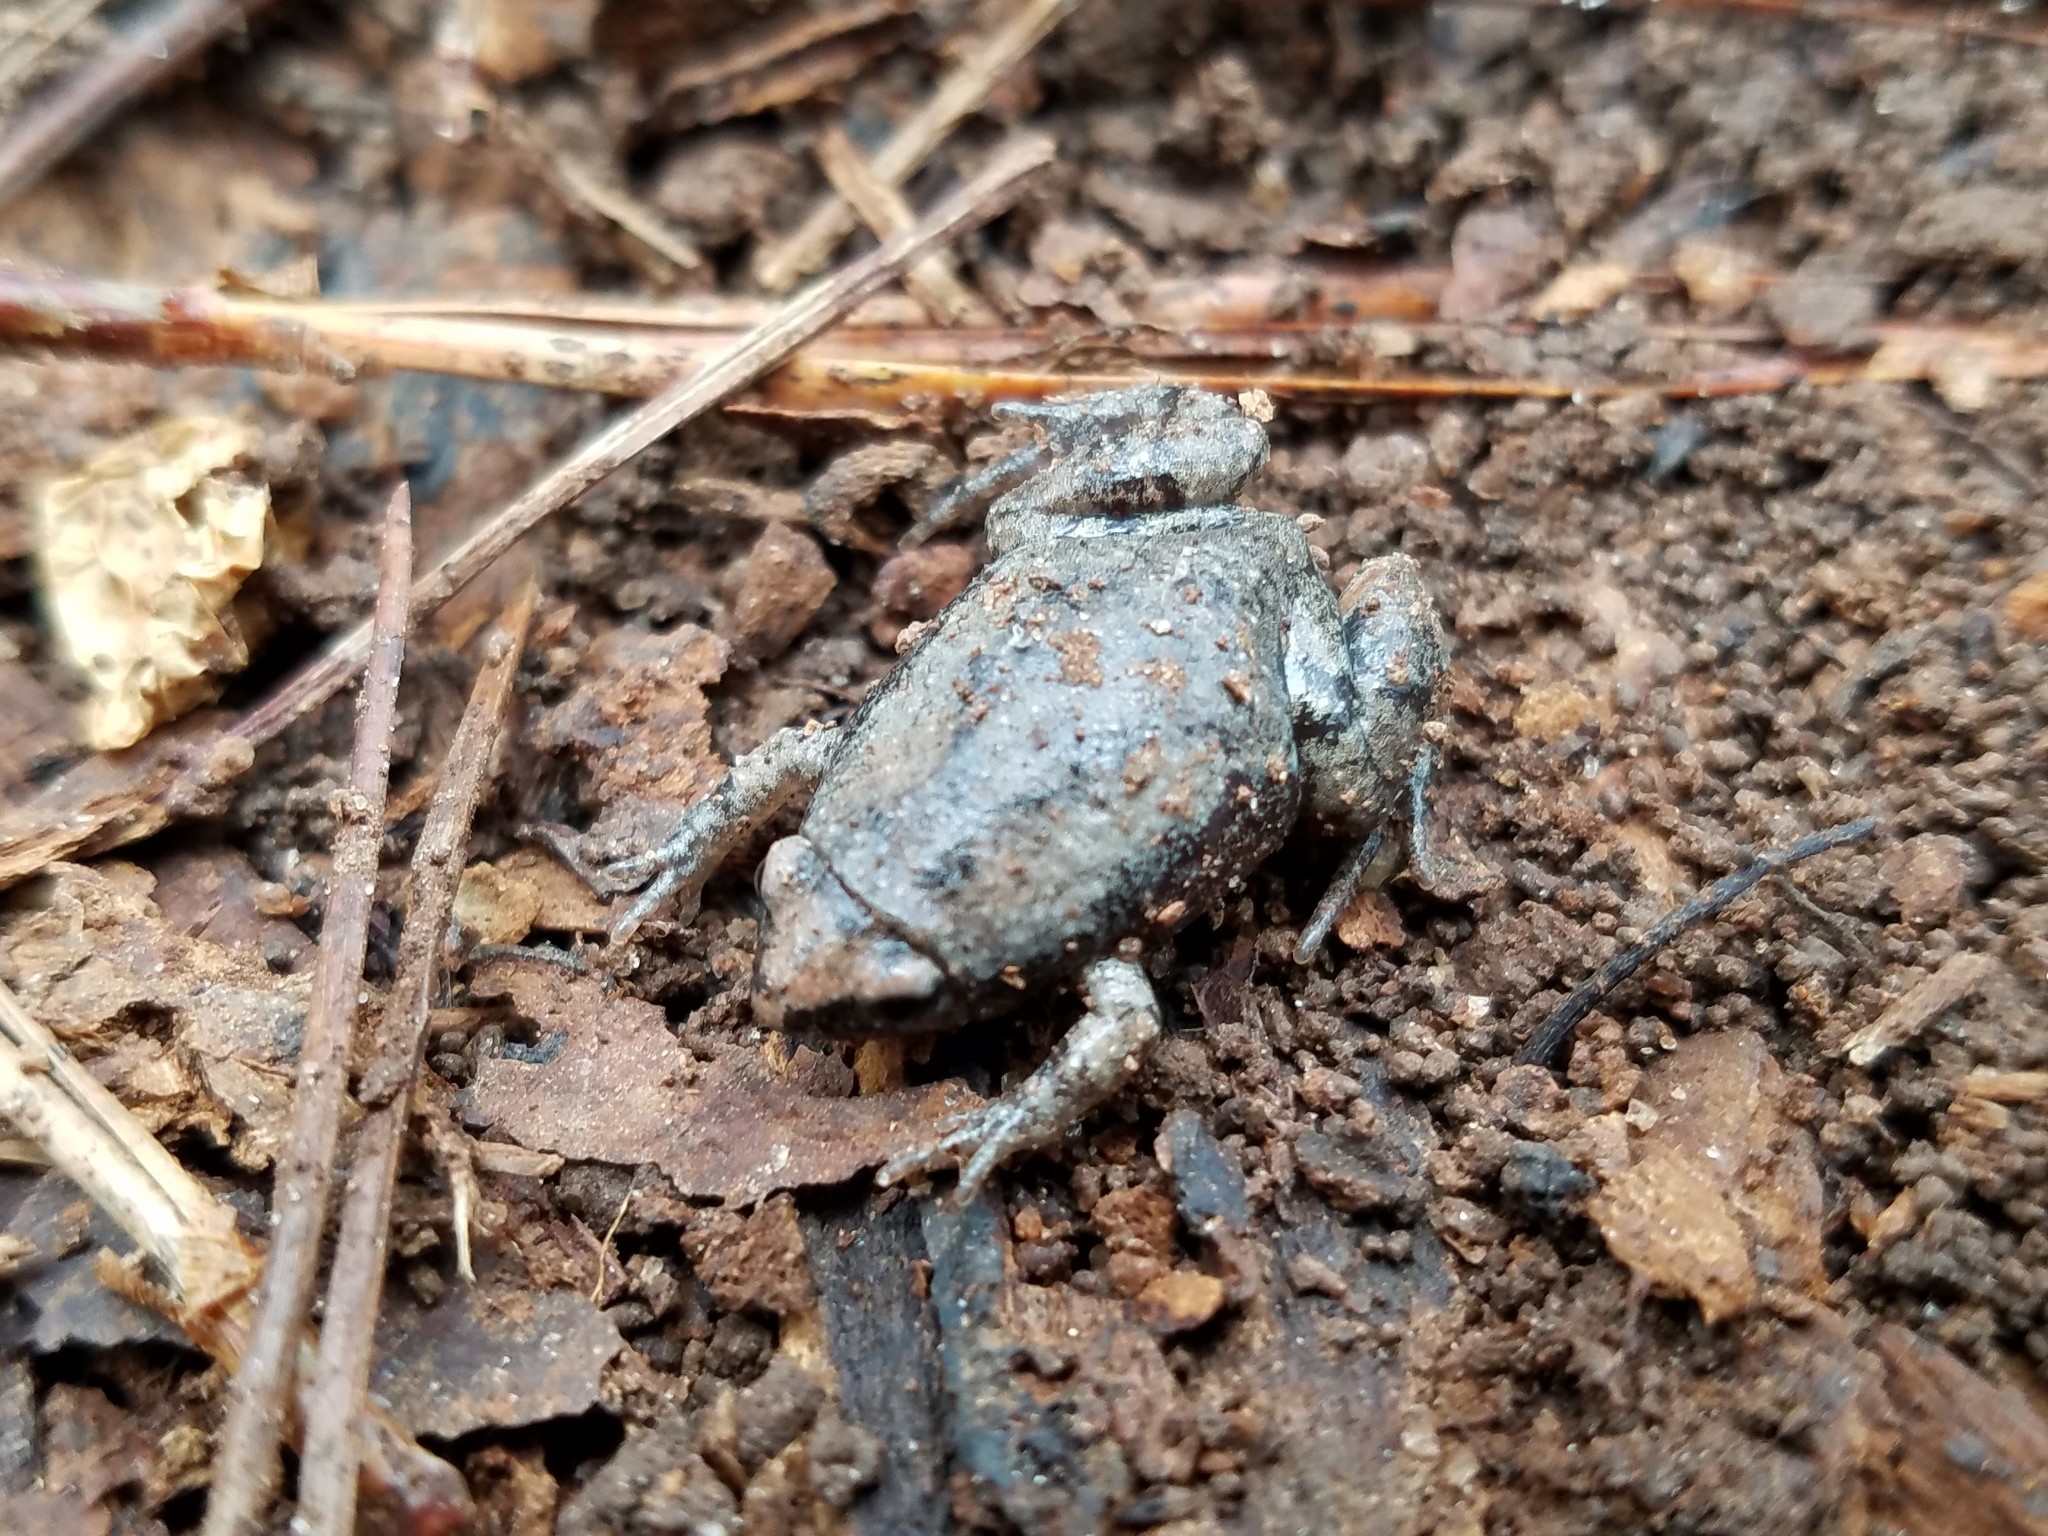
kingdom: Animalia
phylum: Chordata
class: Amphibia
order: Anura
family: Microhylidae
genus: Gastrophryne
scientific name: Gastrophryne carolinensis
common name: Eastern narrowmouth toad
